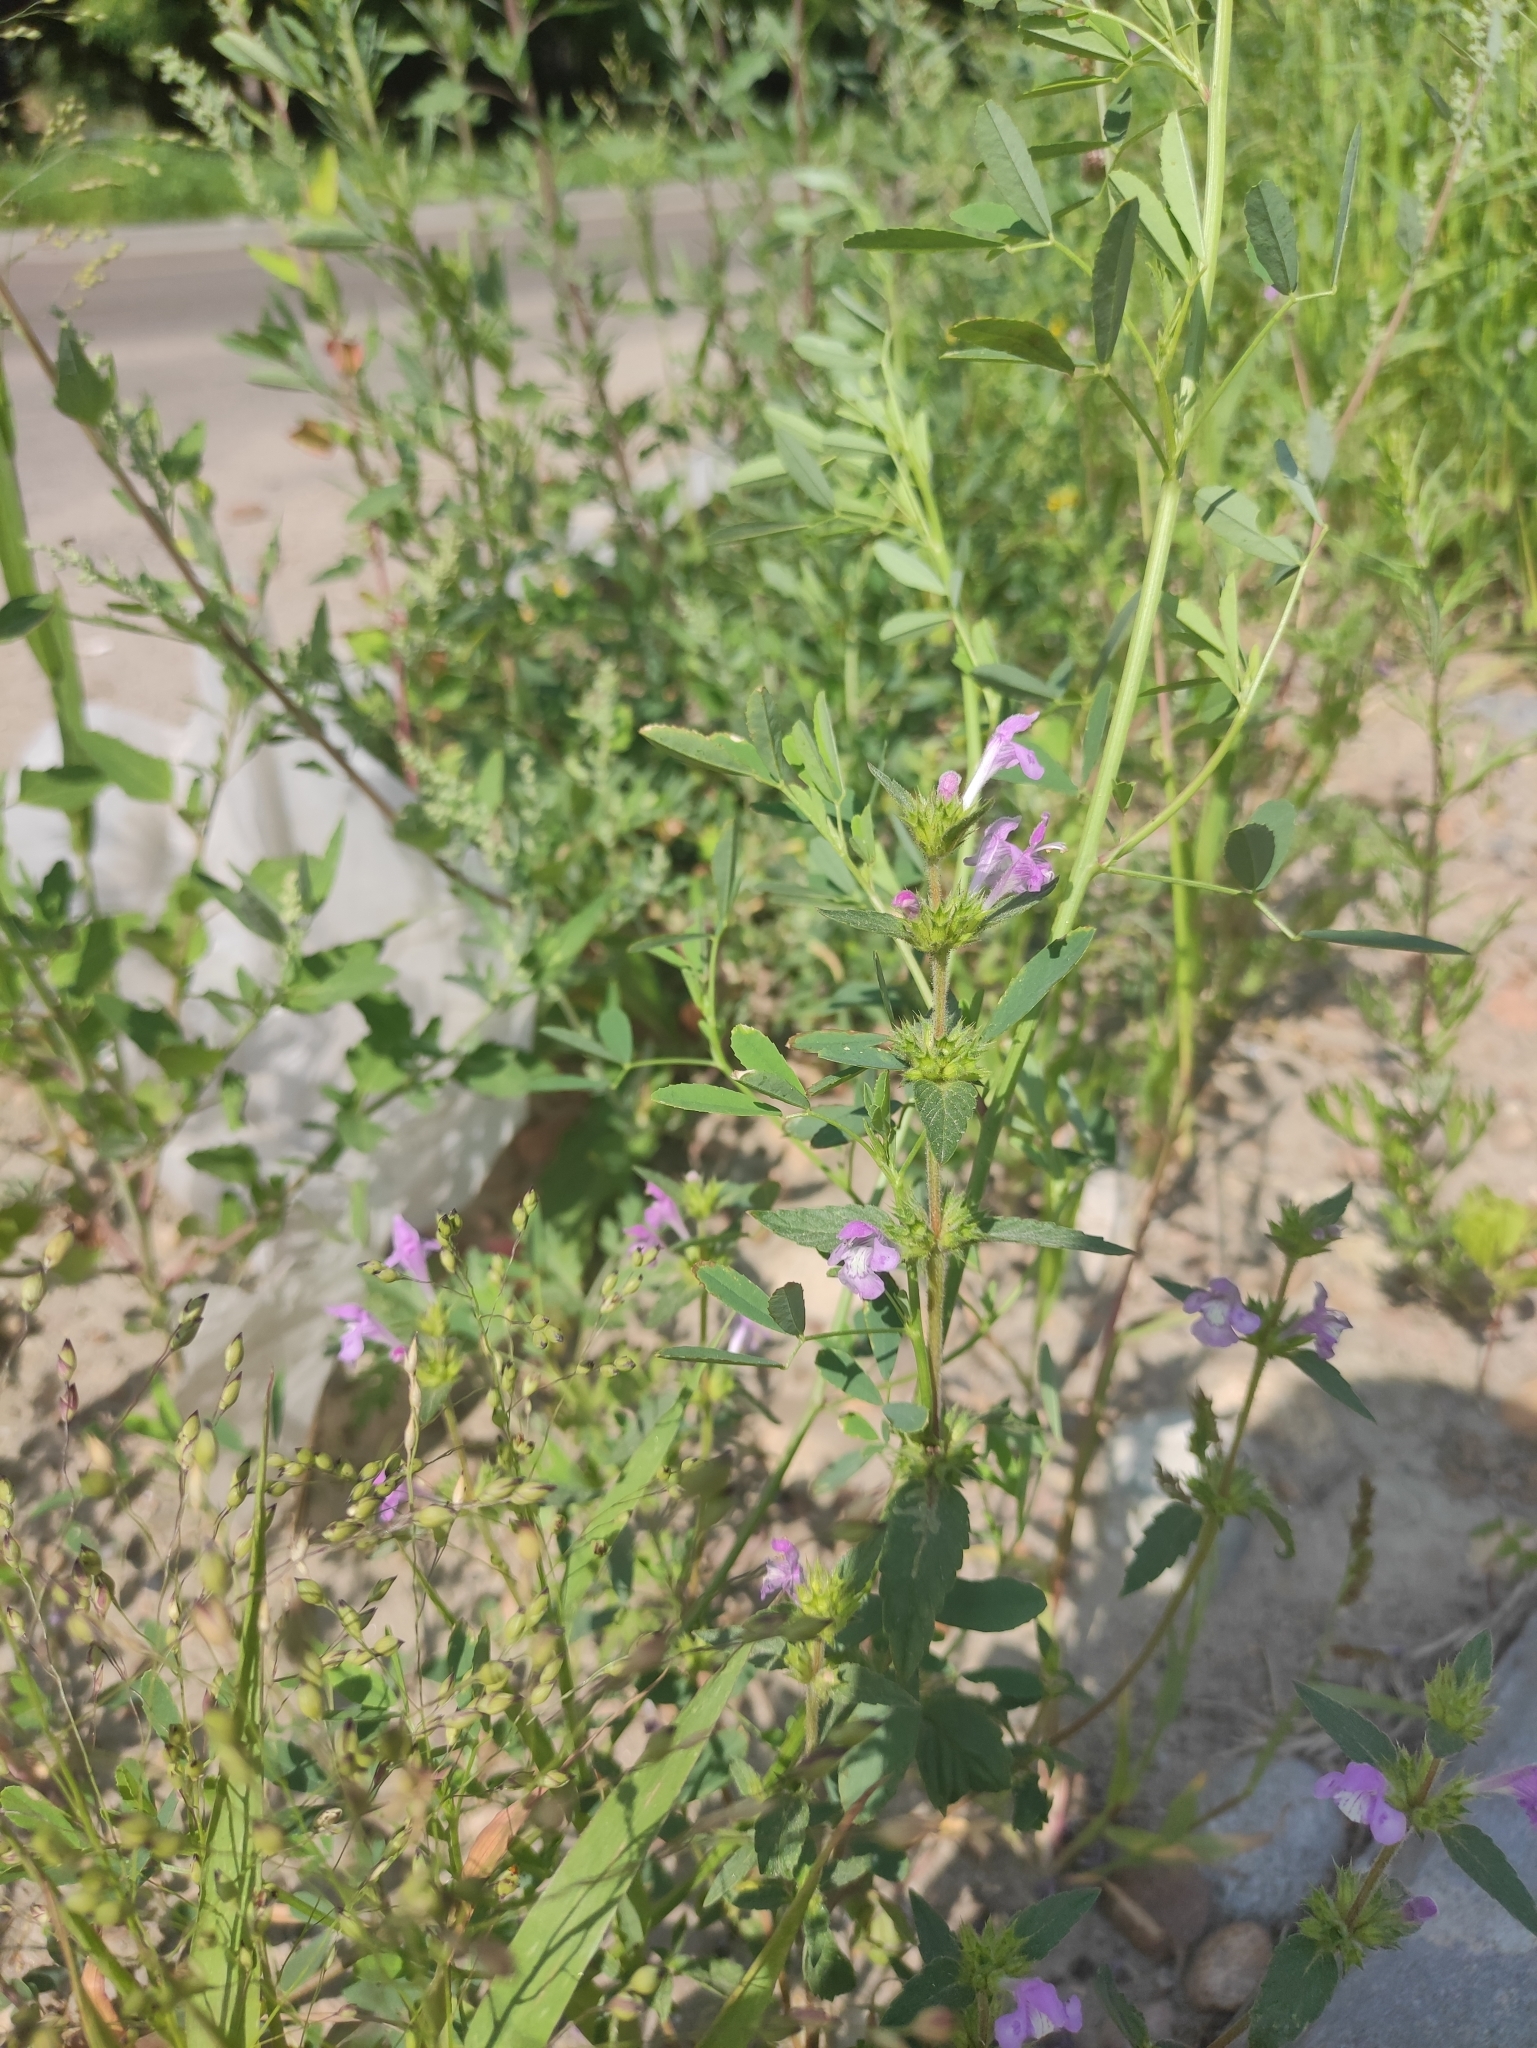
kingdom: Plantae
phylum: Tracheophyta
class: Magnoliopsida
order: Lamiales
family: Lamiaceae
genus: Galeopsis
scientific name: Galeopsis ladanum
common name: Broad-leaved hemp-nettle
